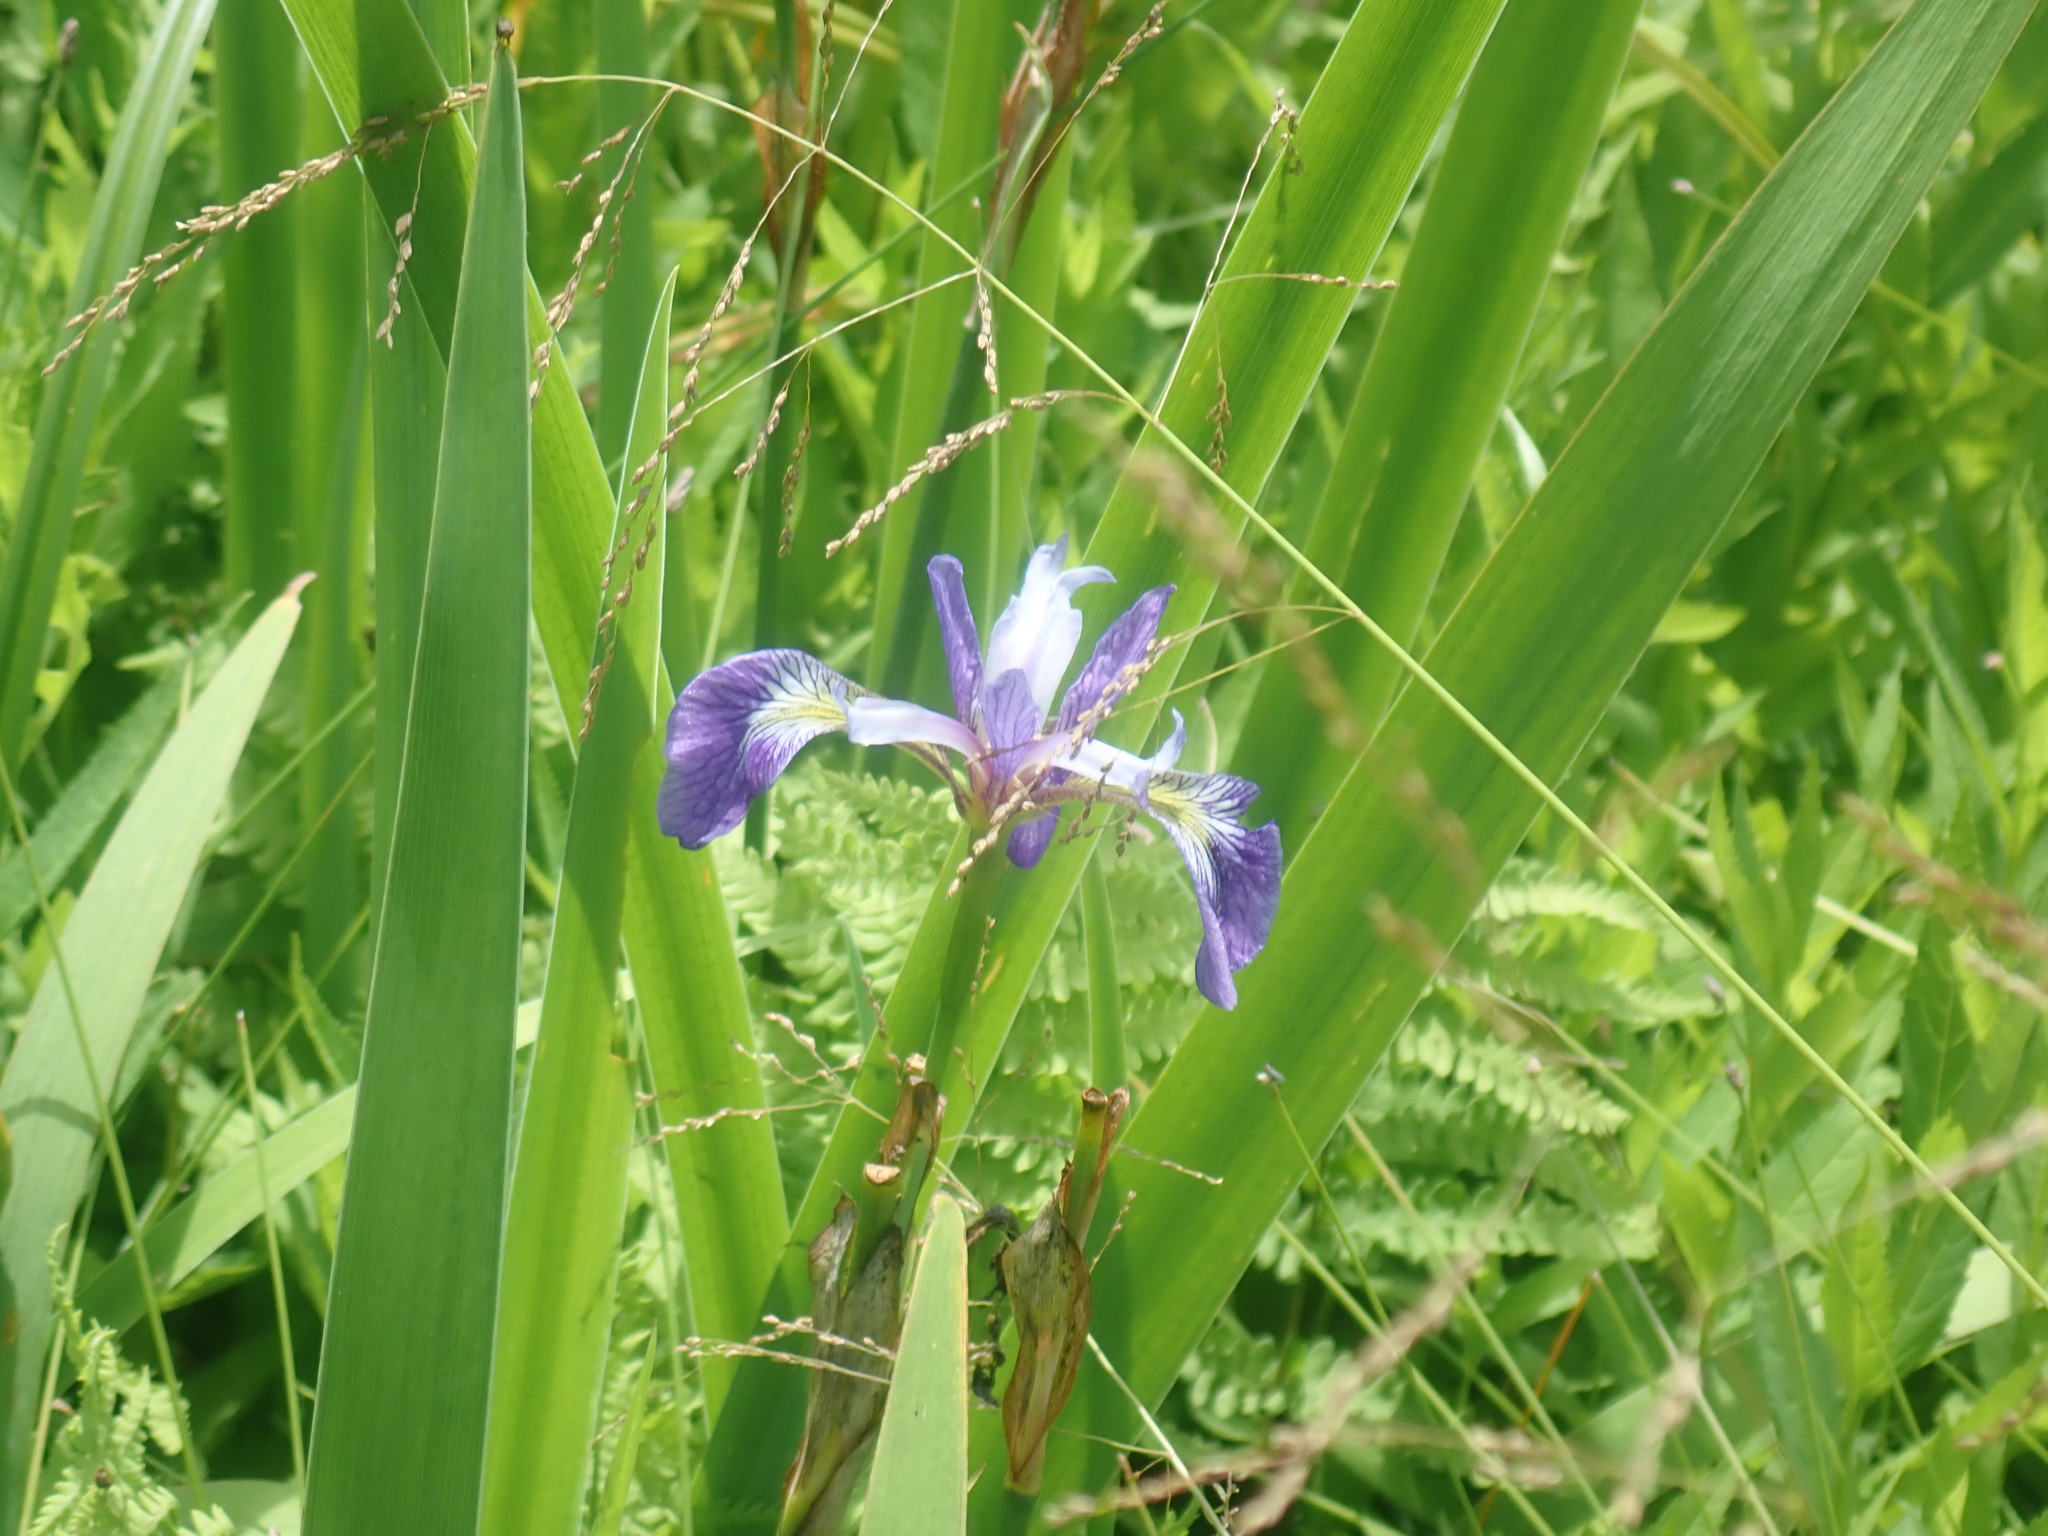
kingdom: Plantae
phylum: Tracheophyta
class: Liliopsida
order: Asparagales
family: Iridaceae
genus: Iris
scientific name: Iris versicolor
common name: Purple iris
